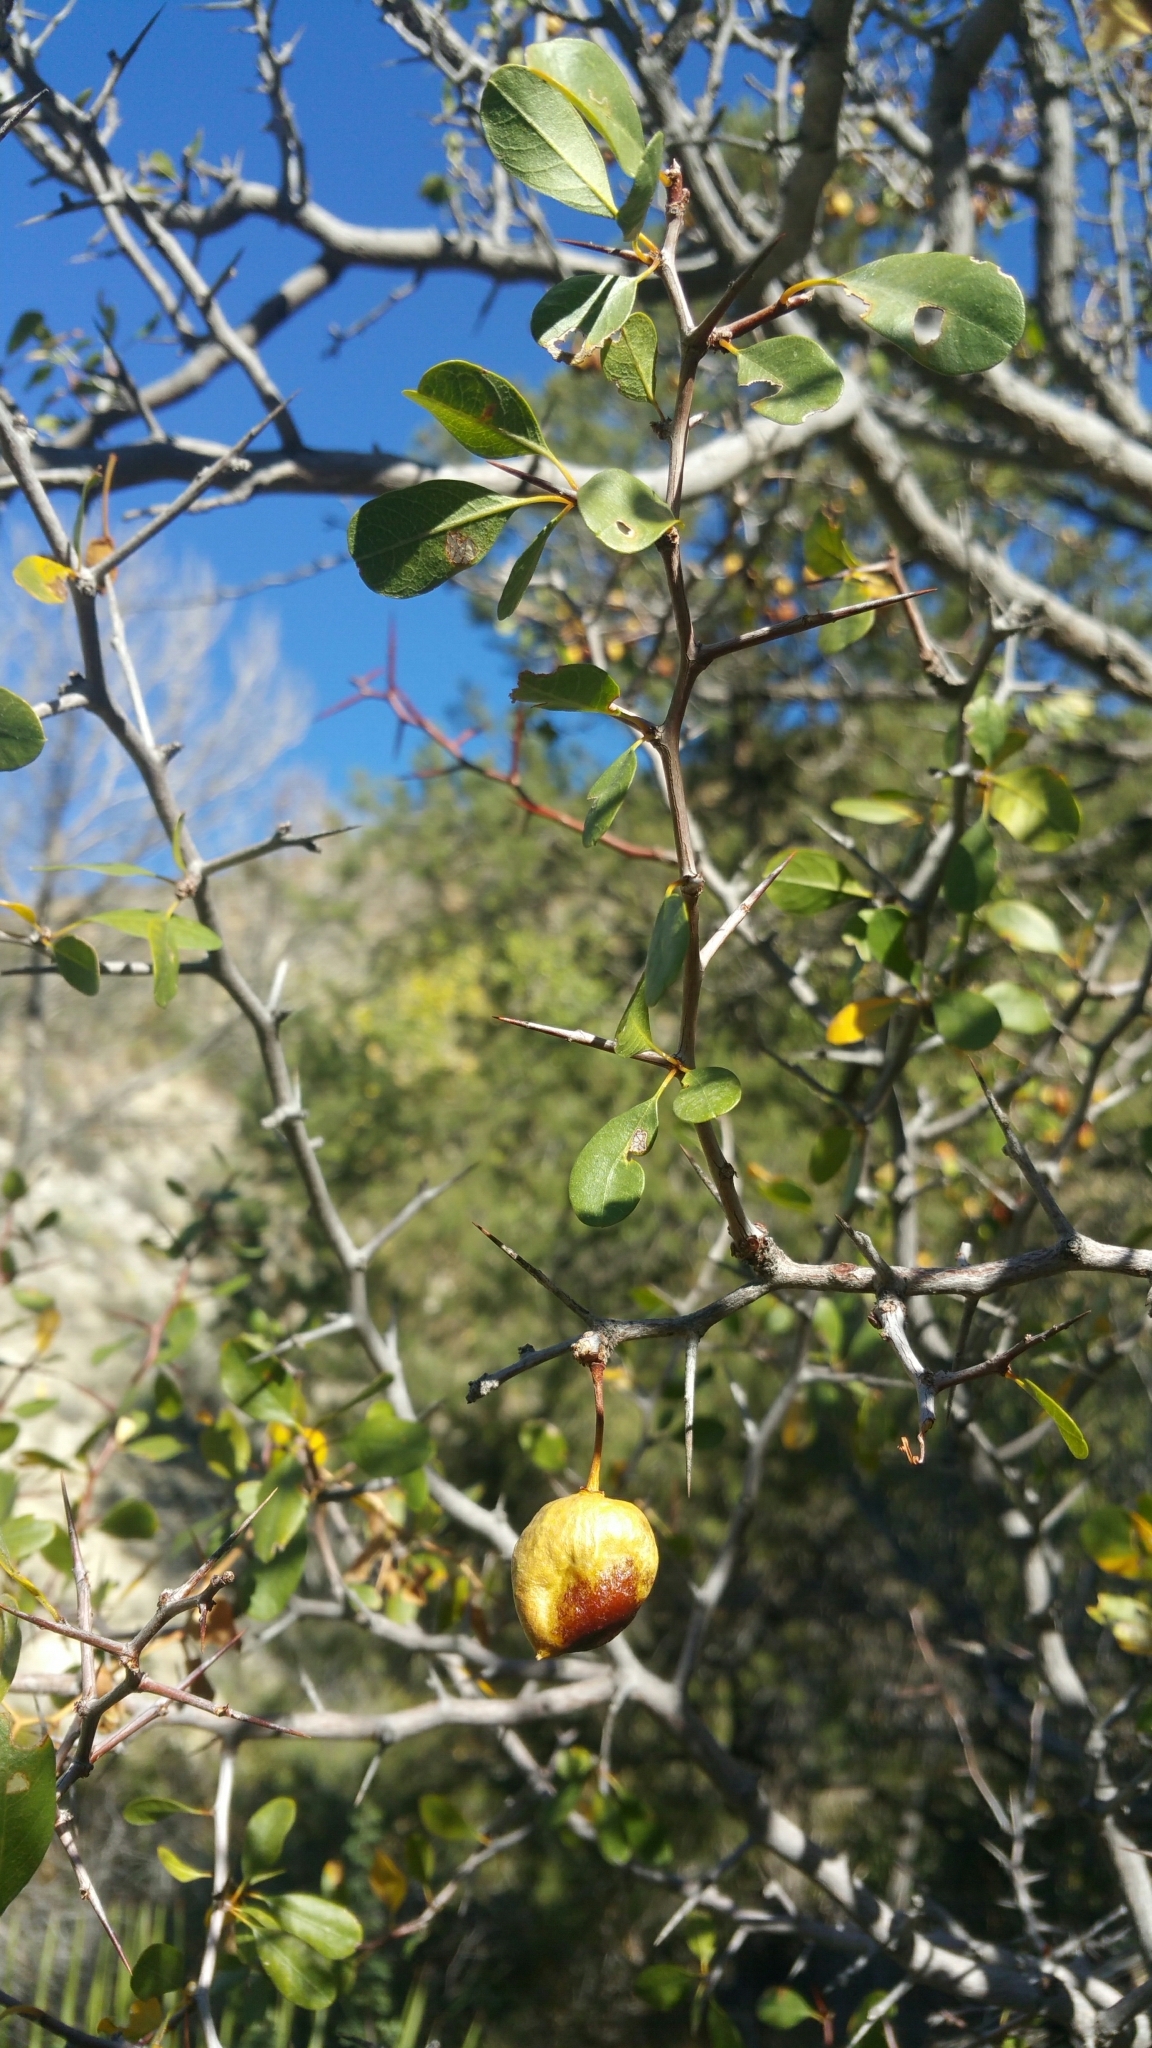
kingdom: Plantae
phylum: Tracheophyta
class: Magnoliopsida
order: Rosales
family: Rhamnaceae
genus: Pseudoziziphus
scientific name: Pseudoziziphus parryi
